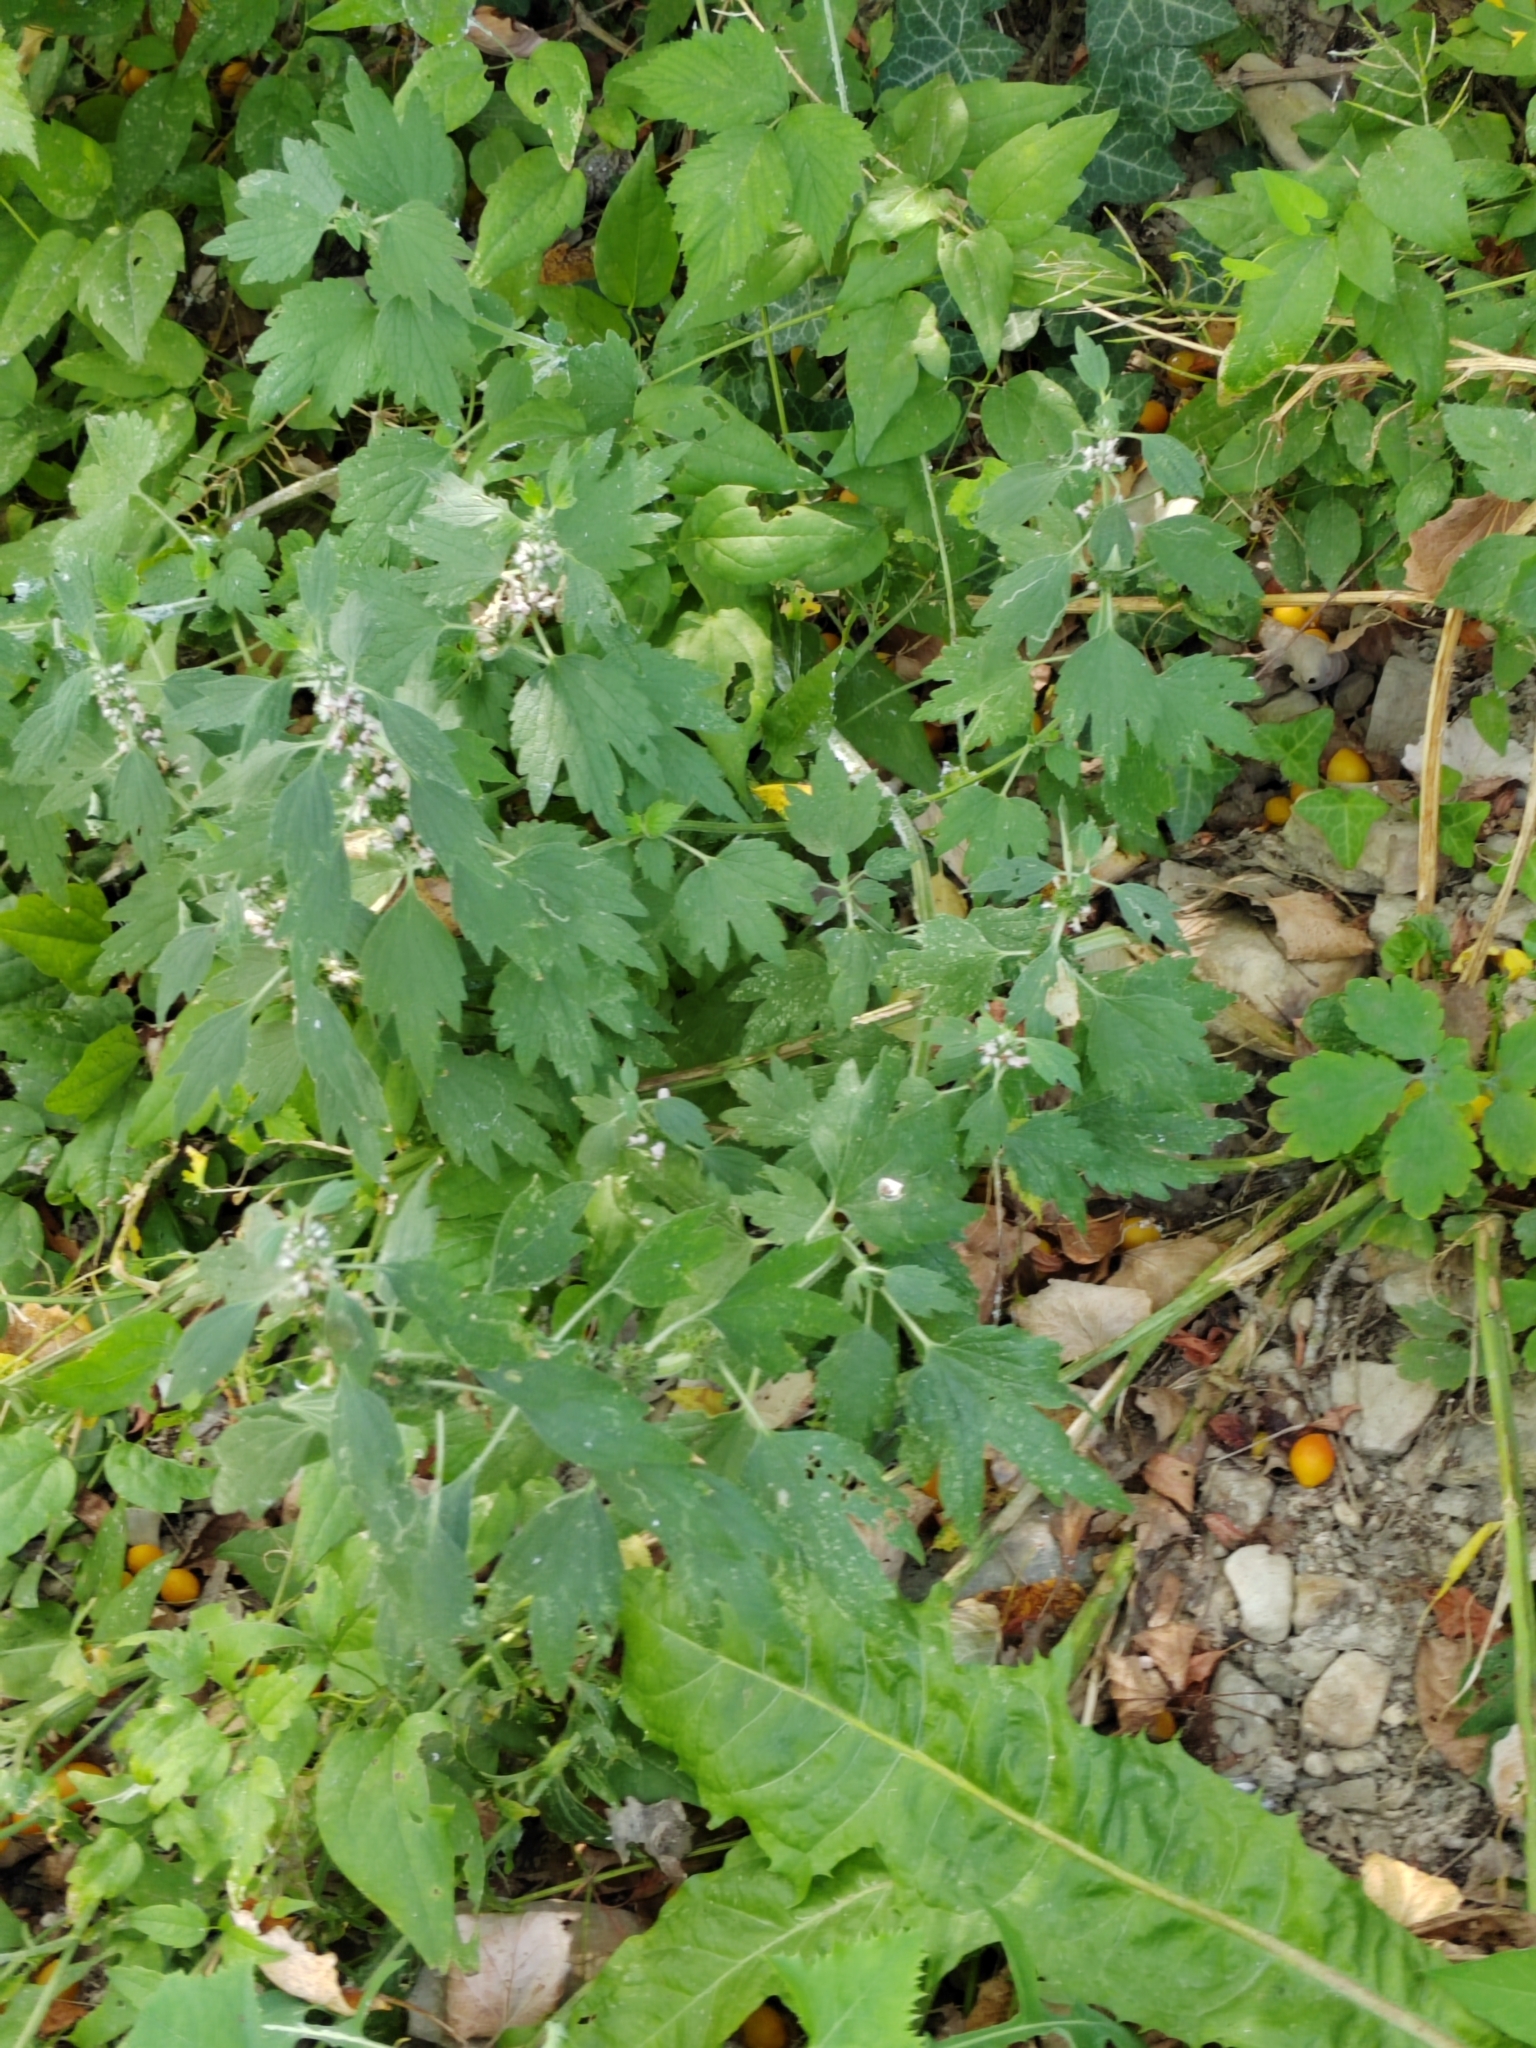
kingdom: Plantae
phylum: Tracheophyta
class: Magnoliopsida
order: Lamiales
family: Lamiaceae
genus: Leonurus
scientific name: Leonurus quinquelobatus
